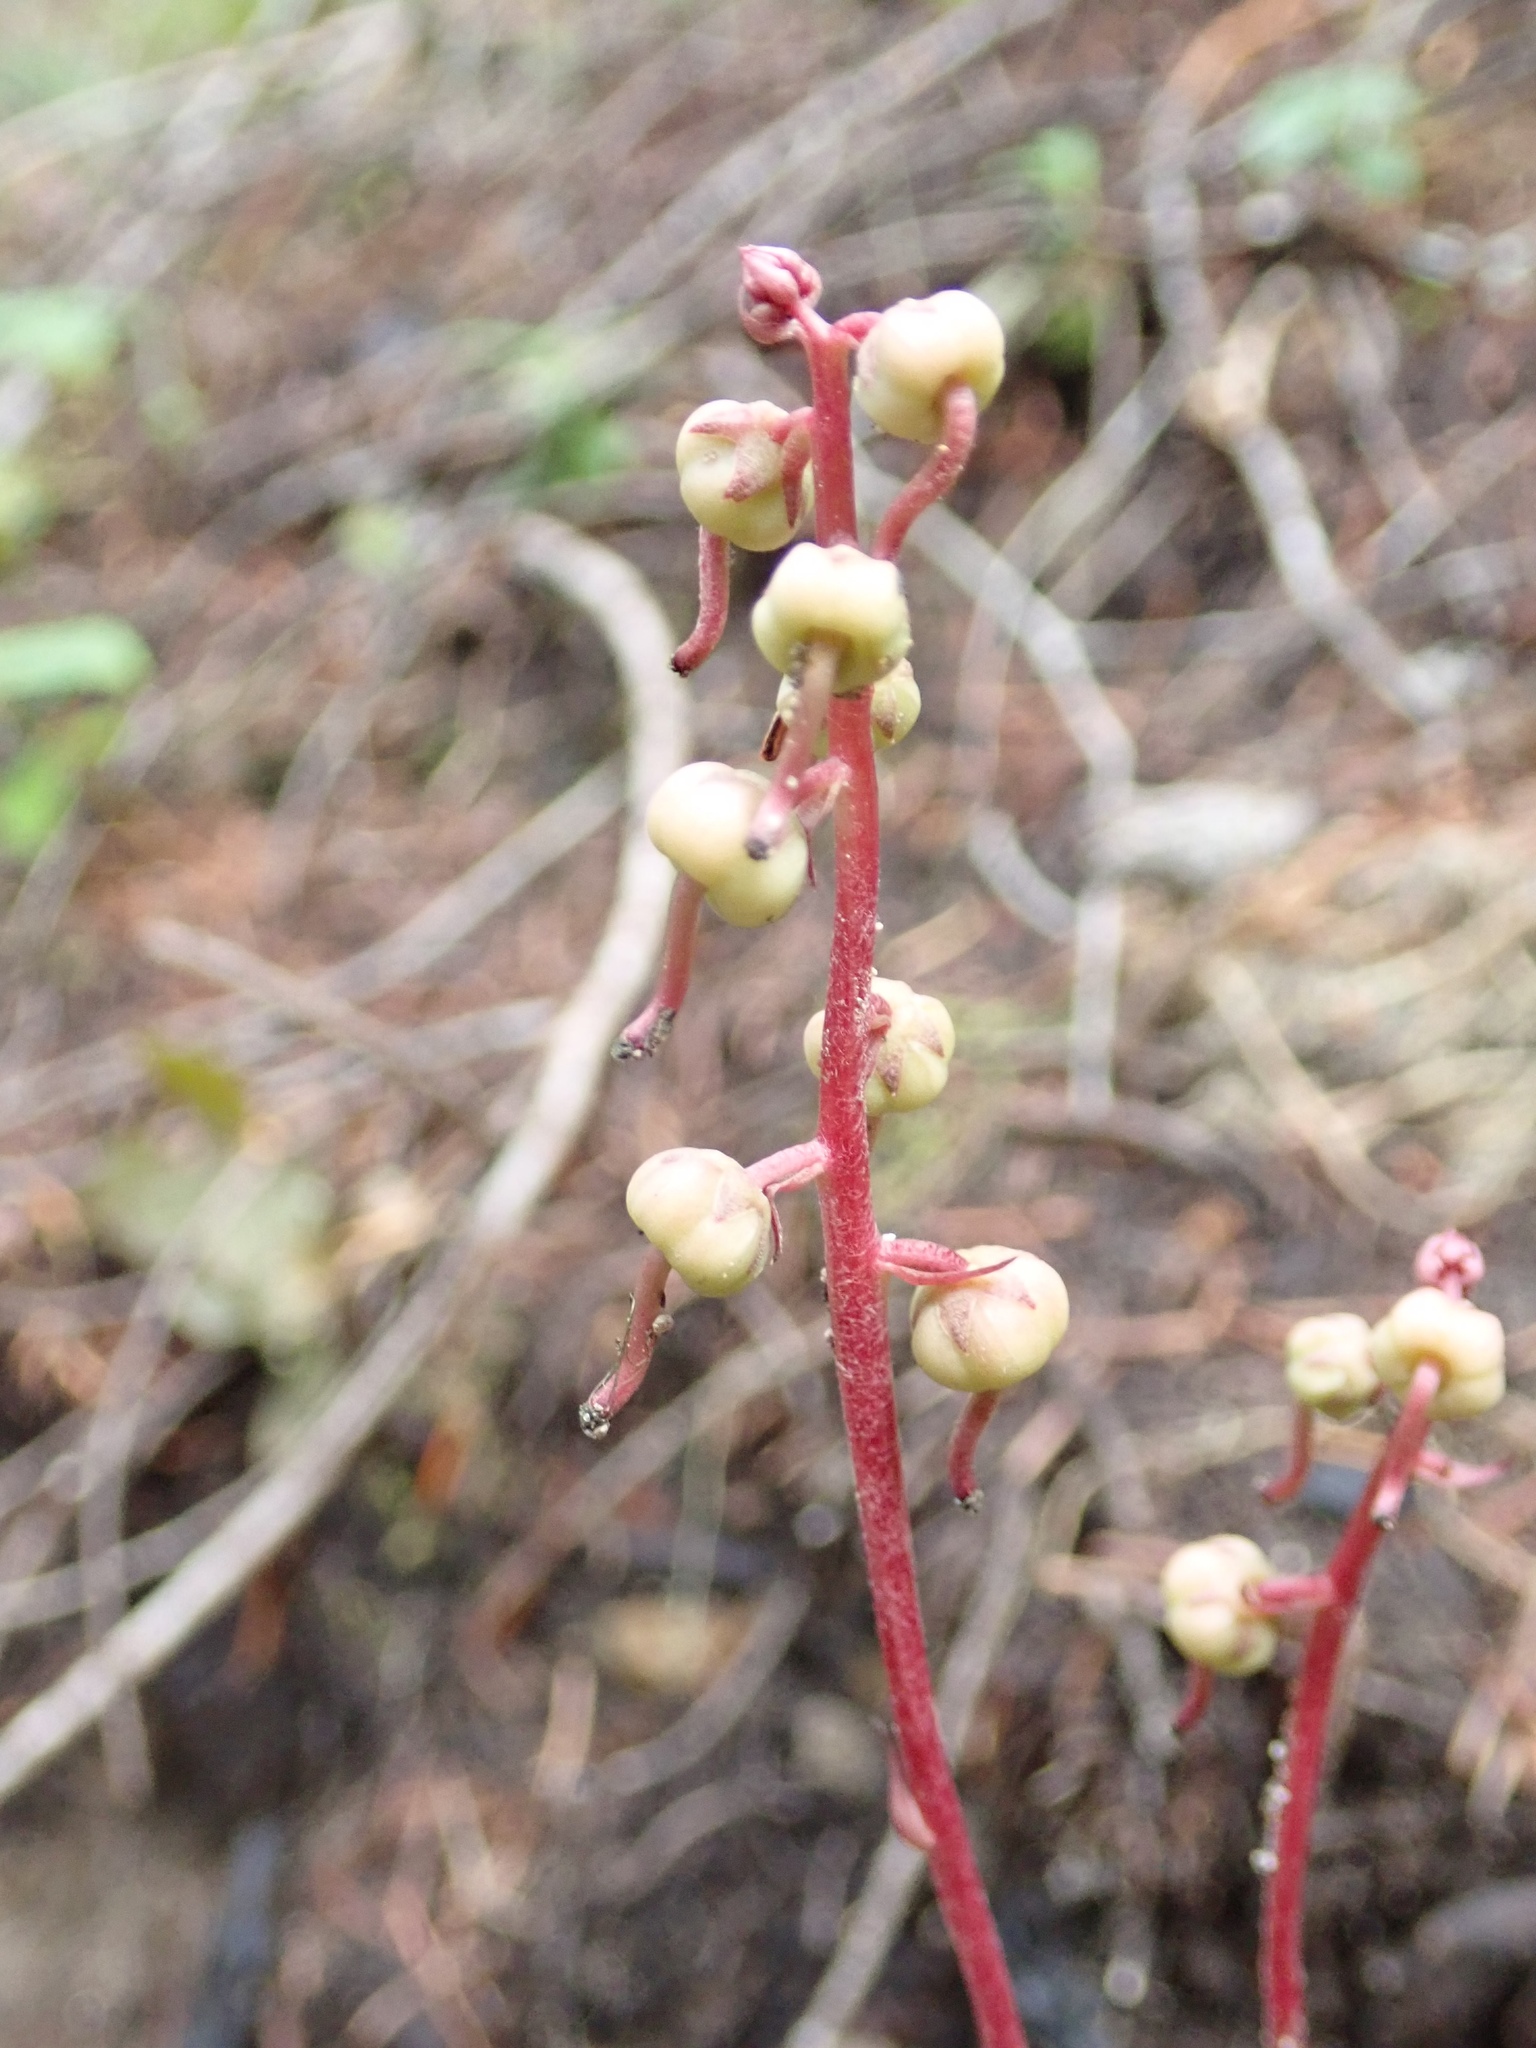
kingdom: Plantae
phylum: Tracheophyta
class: Magnoliopsida
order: Ericales
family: Ericaceae
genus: Pyrola
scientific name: Pyrola aphylla
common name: Leafless wintergreen
